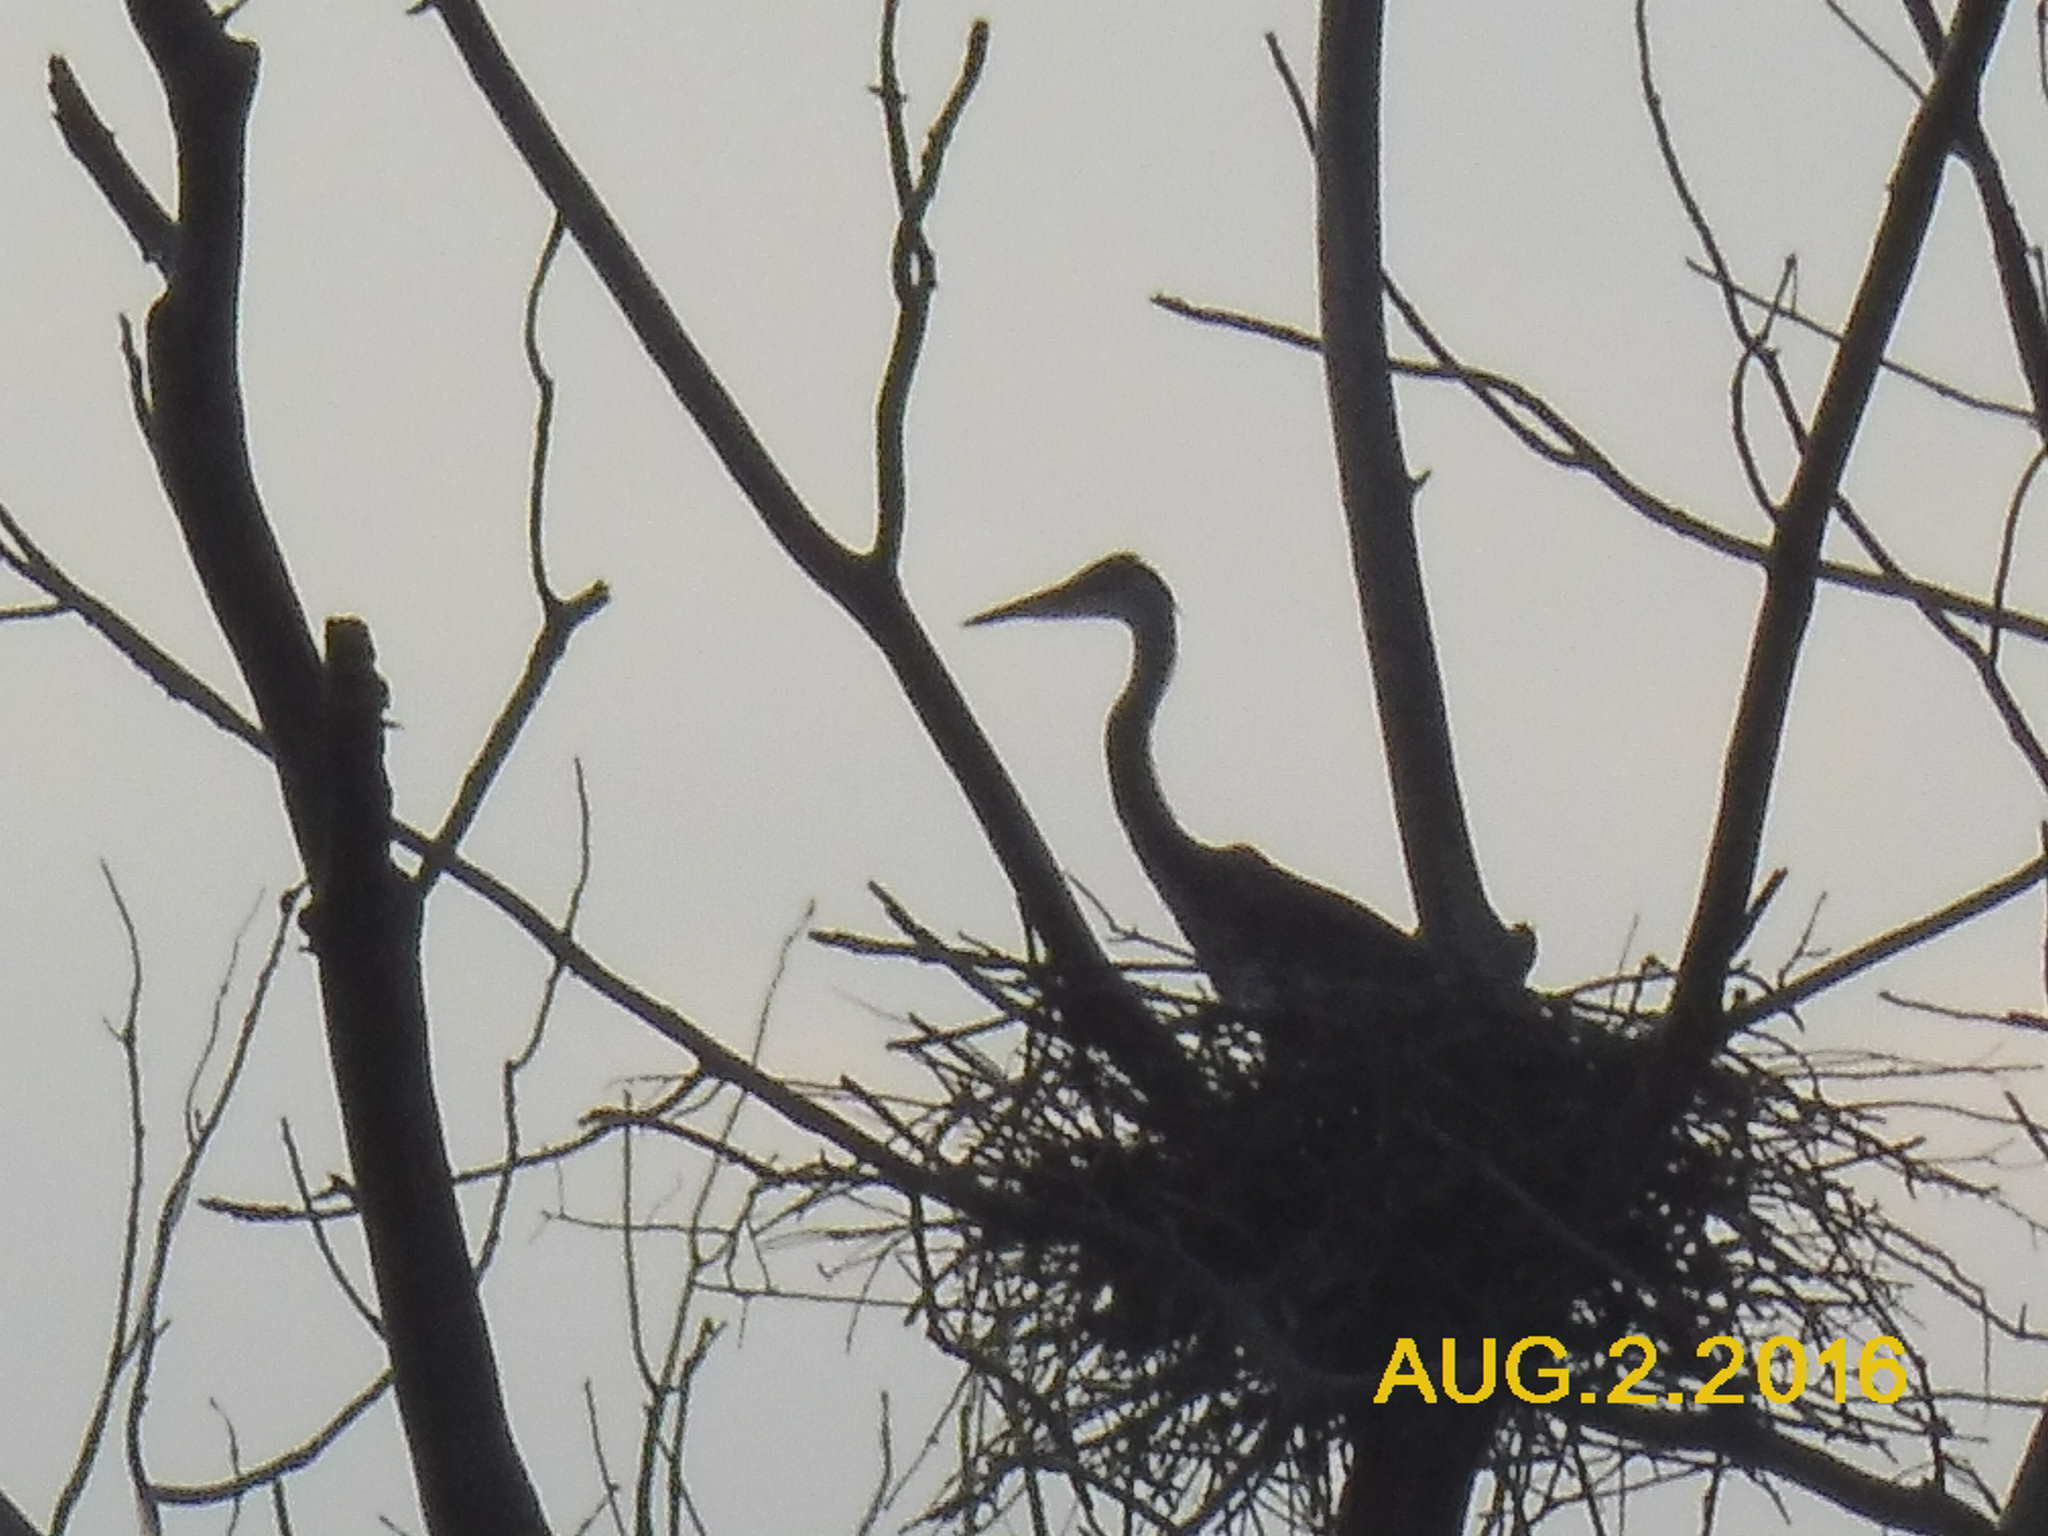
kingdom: Animalia
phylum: Chordata
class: Aves
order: Pelecaniformes
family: Ardeidae
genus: Ardea
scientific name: Ardea herodias
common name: Great blue heron
